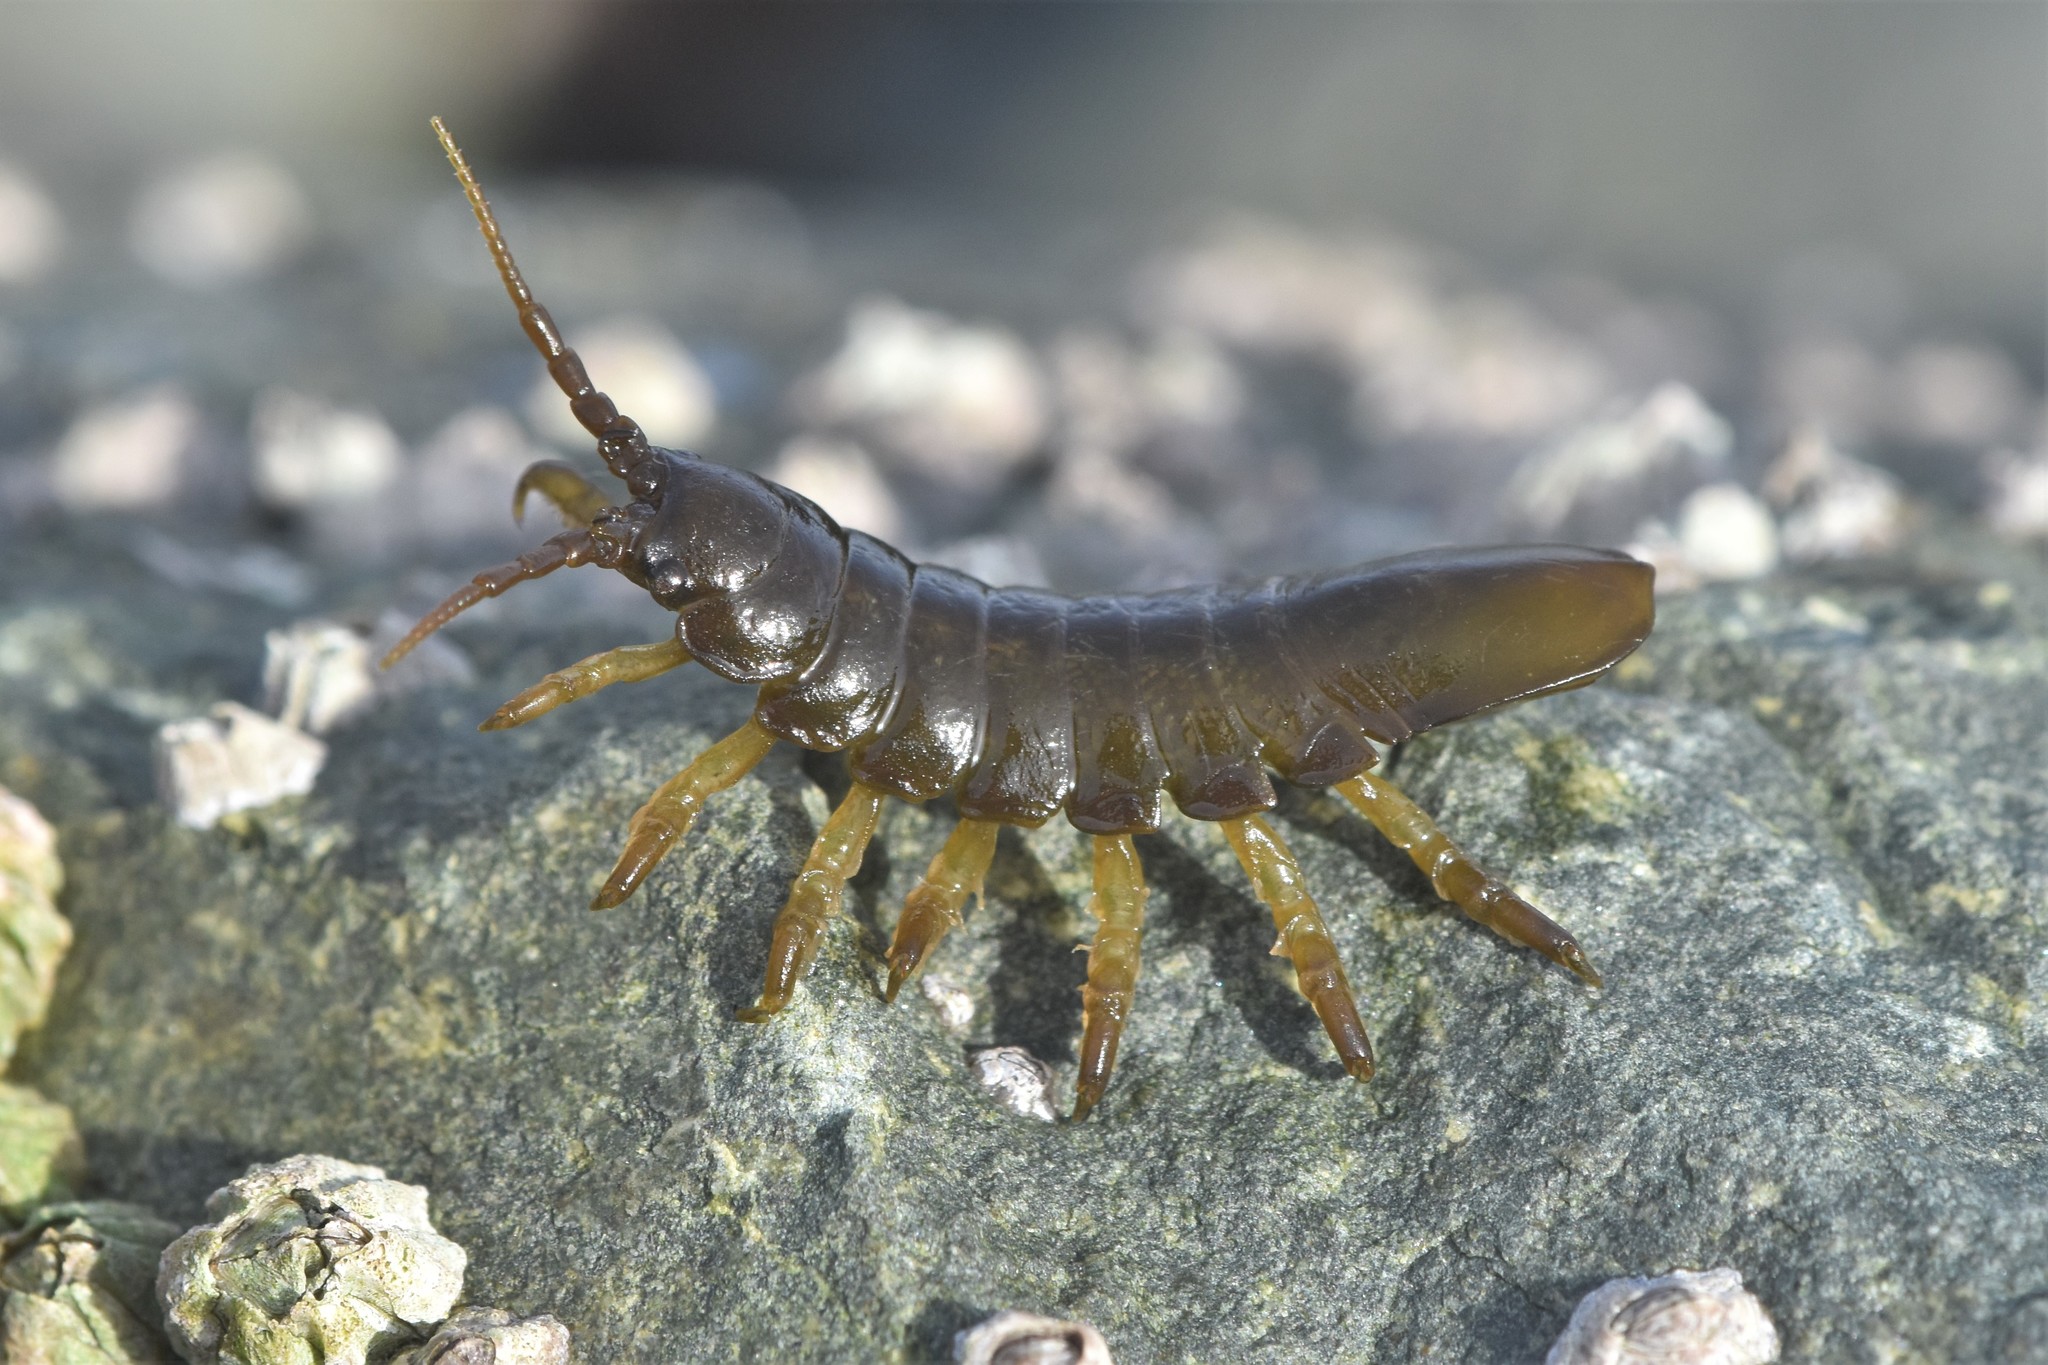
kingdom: Animalia
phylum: Arthropoda
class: Malacostraca
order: Isopoda
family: Idoteidae
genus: Pentidotea
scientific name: Pentidotea wosnesenskii
